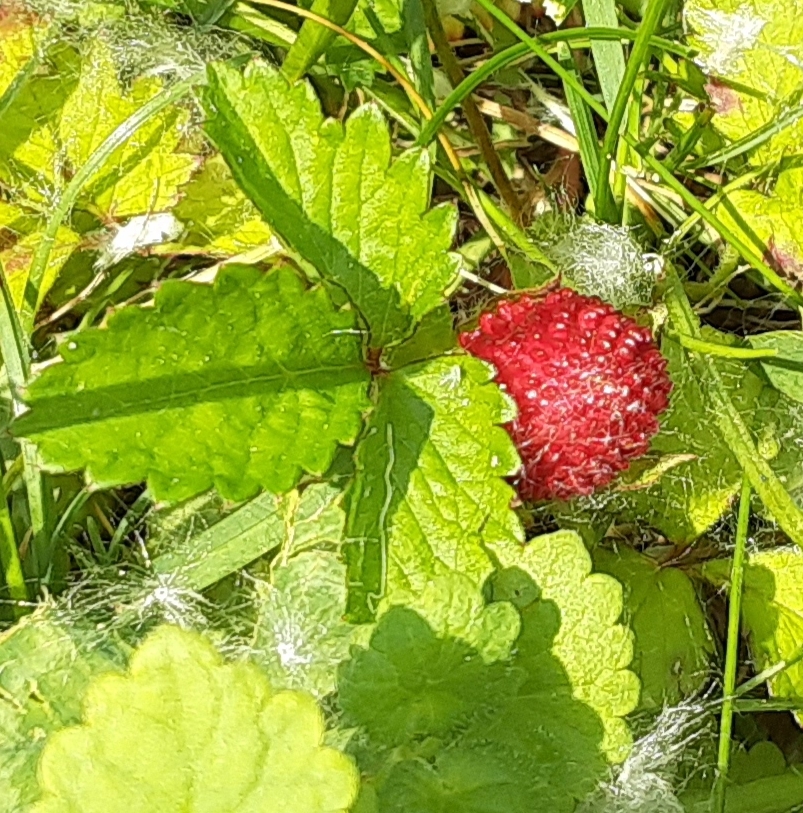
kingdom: Plantae
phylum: Tracheophyta
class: Magnoliopsida
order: Rosales
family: Rosaceae
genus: Potentilla
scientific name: Potentilla indica
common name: Yellow-flowered strawberry
